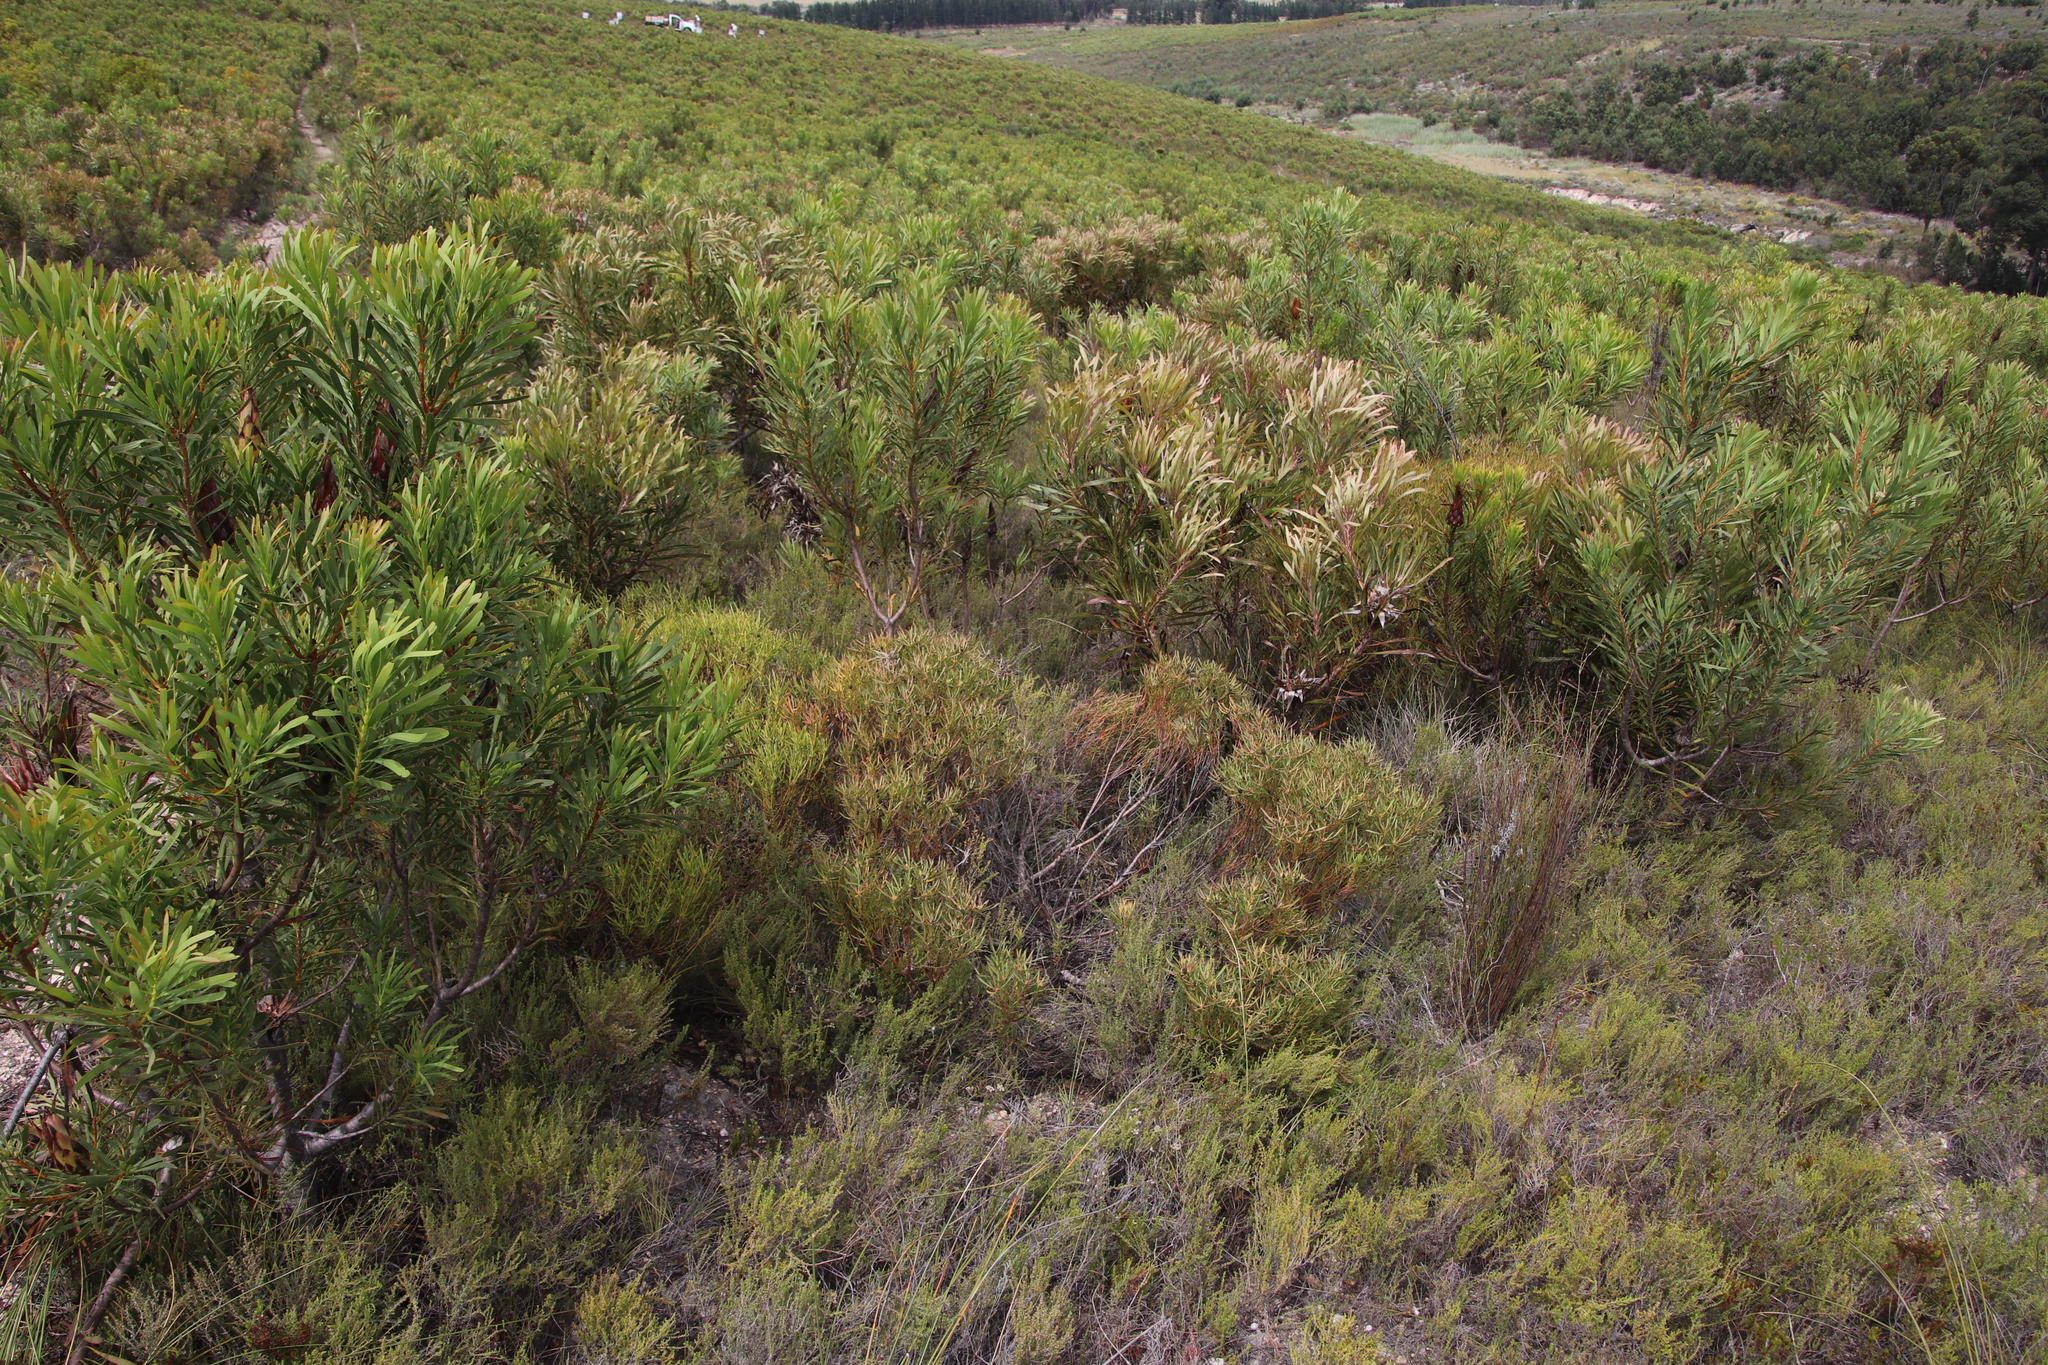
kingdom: Plantae
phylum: Tracheophyta
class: Magnoliopsida
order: Proteales
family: Proteaceae
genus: Leucadendron
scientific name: Leucadendron salignum
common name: Common sunshine conebush
